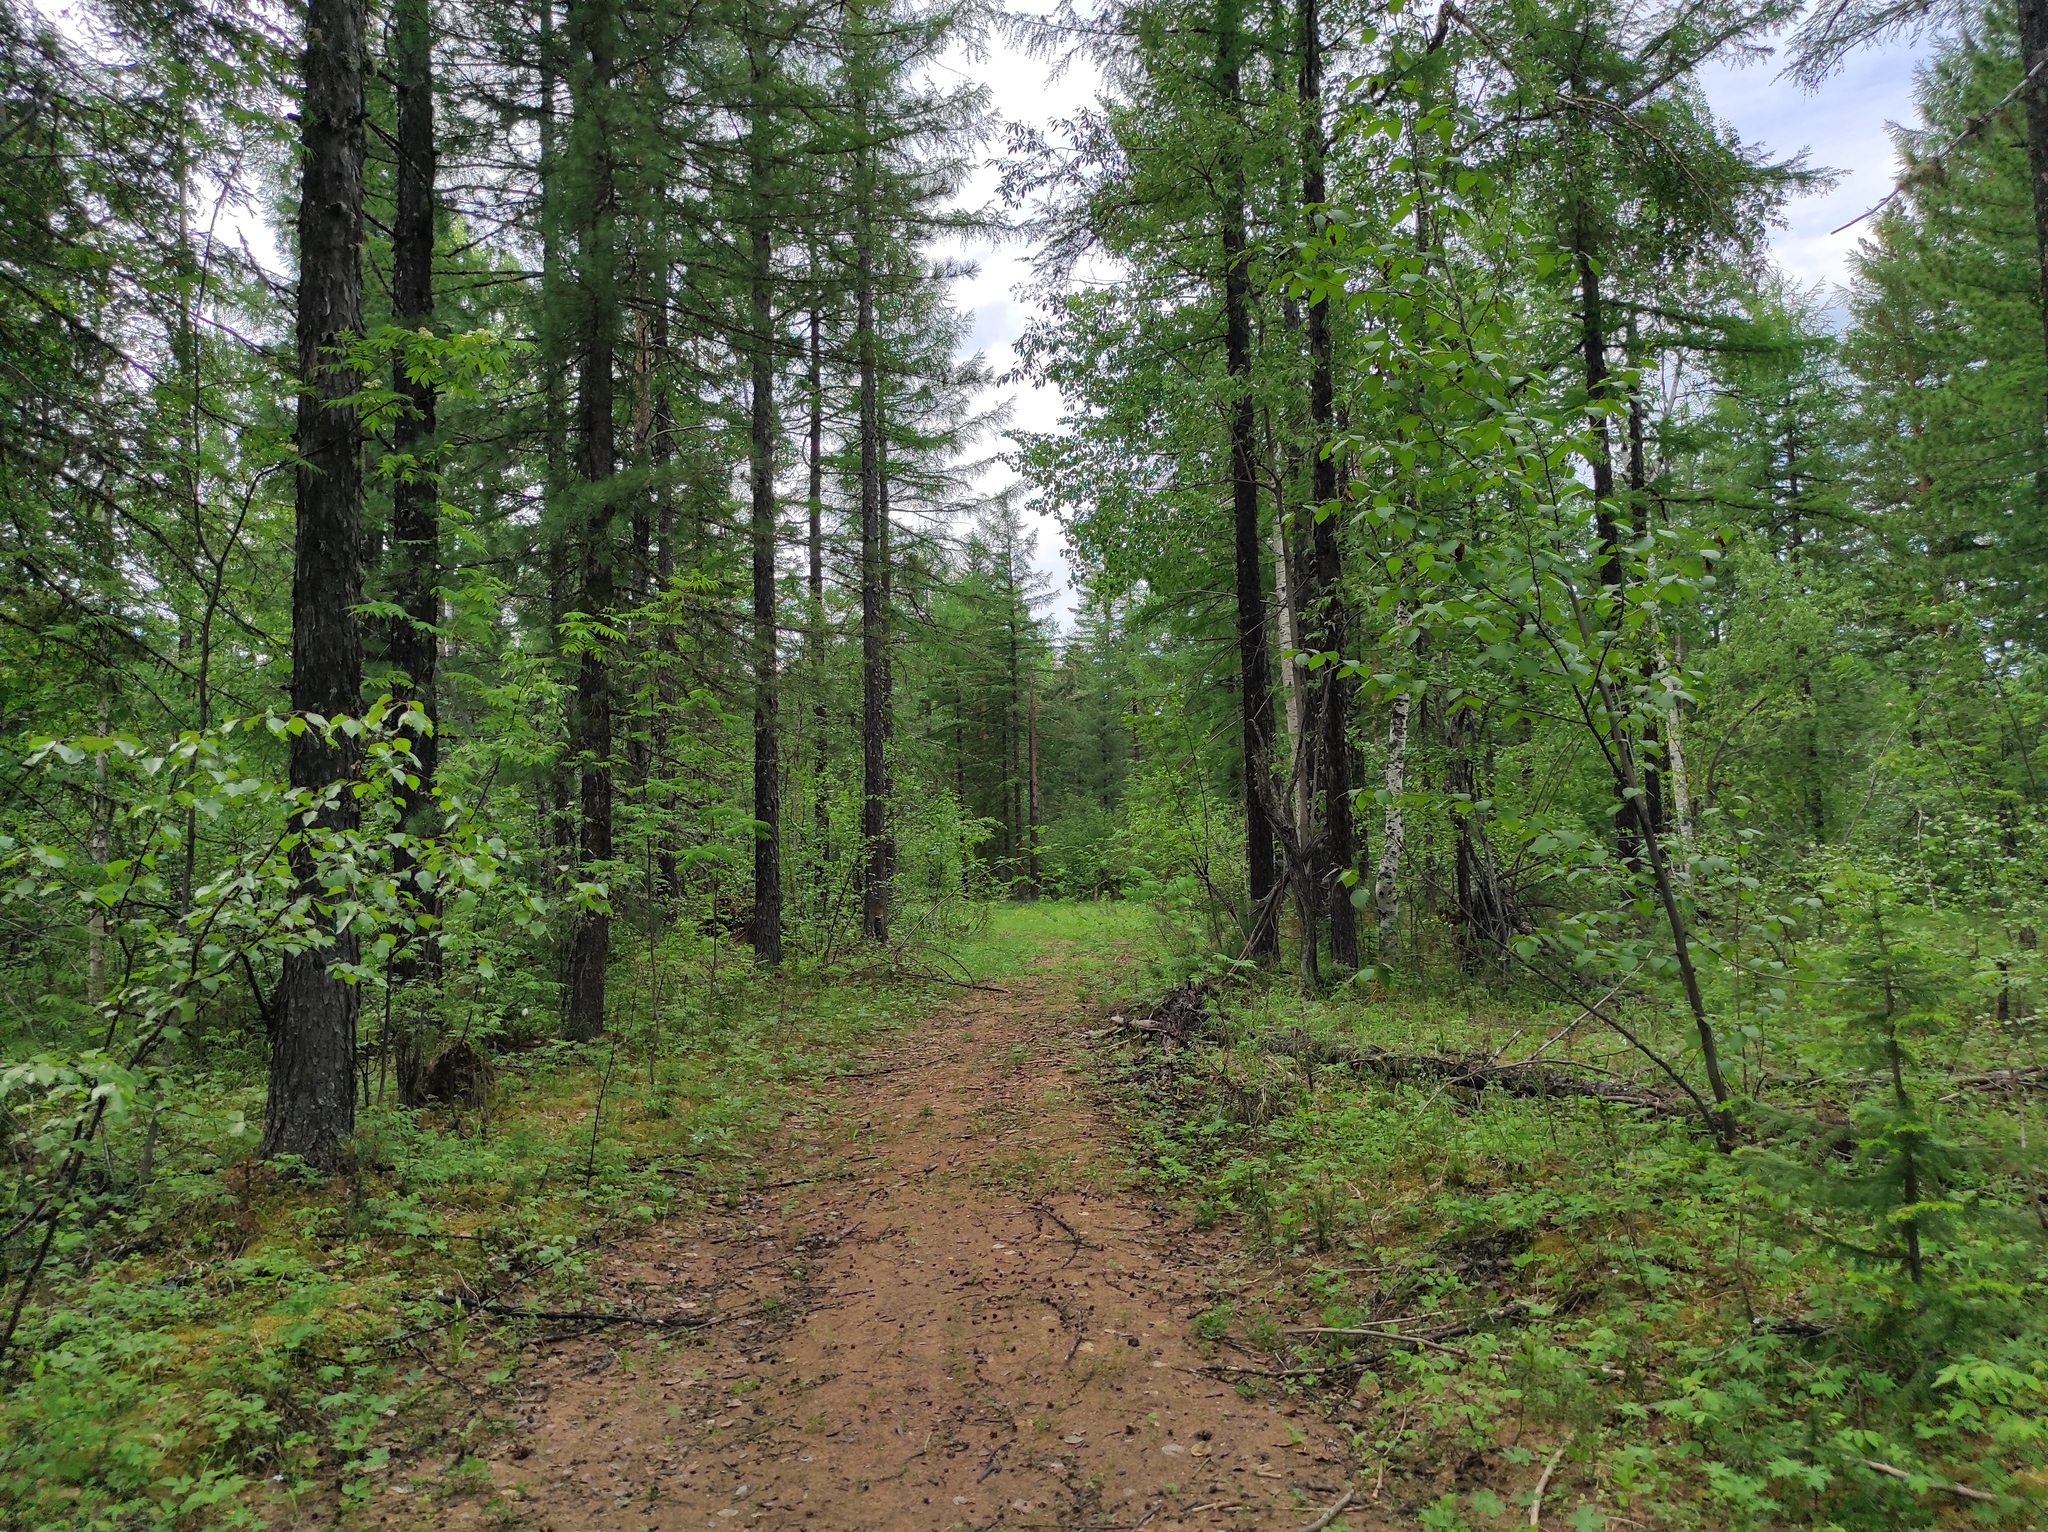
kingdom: Plantae
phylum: Tracheophyta
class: Pinopsida
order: Pinales
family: Pinaceae
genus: Pinus
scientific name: Pinus sylvestris
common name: Scots pine
